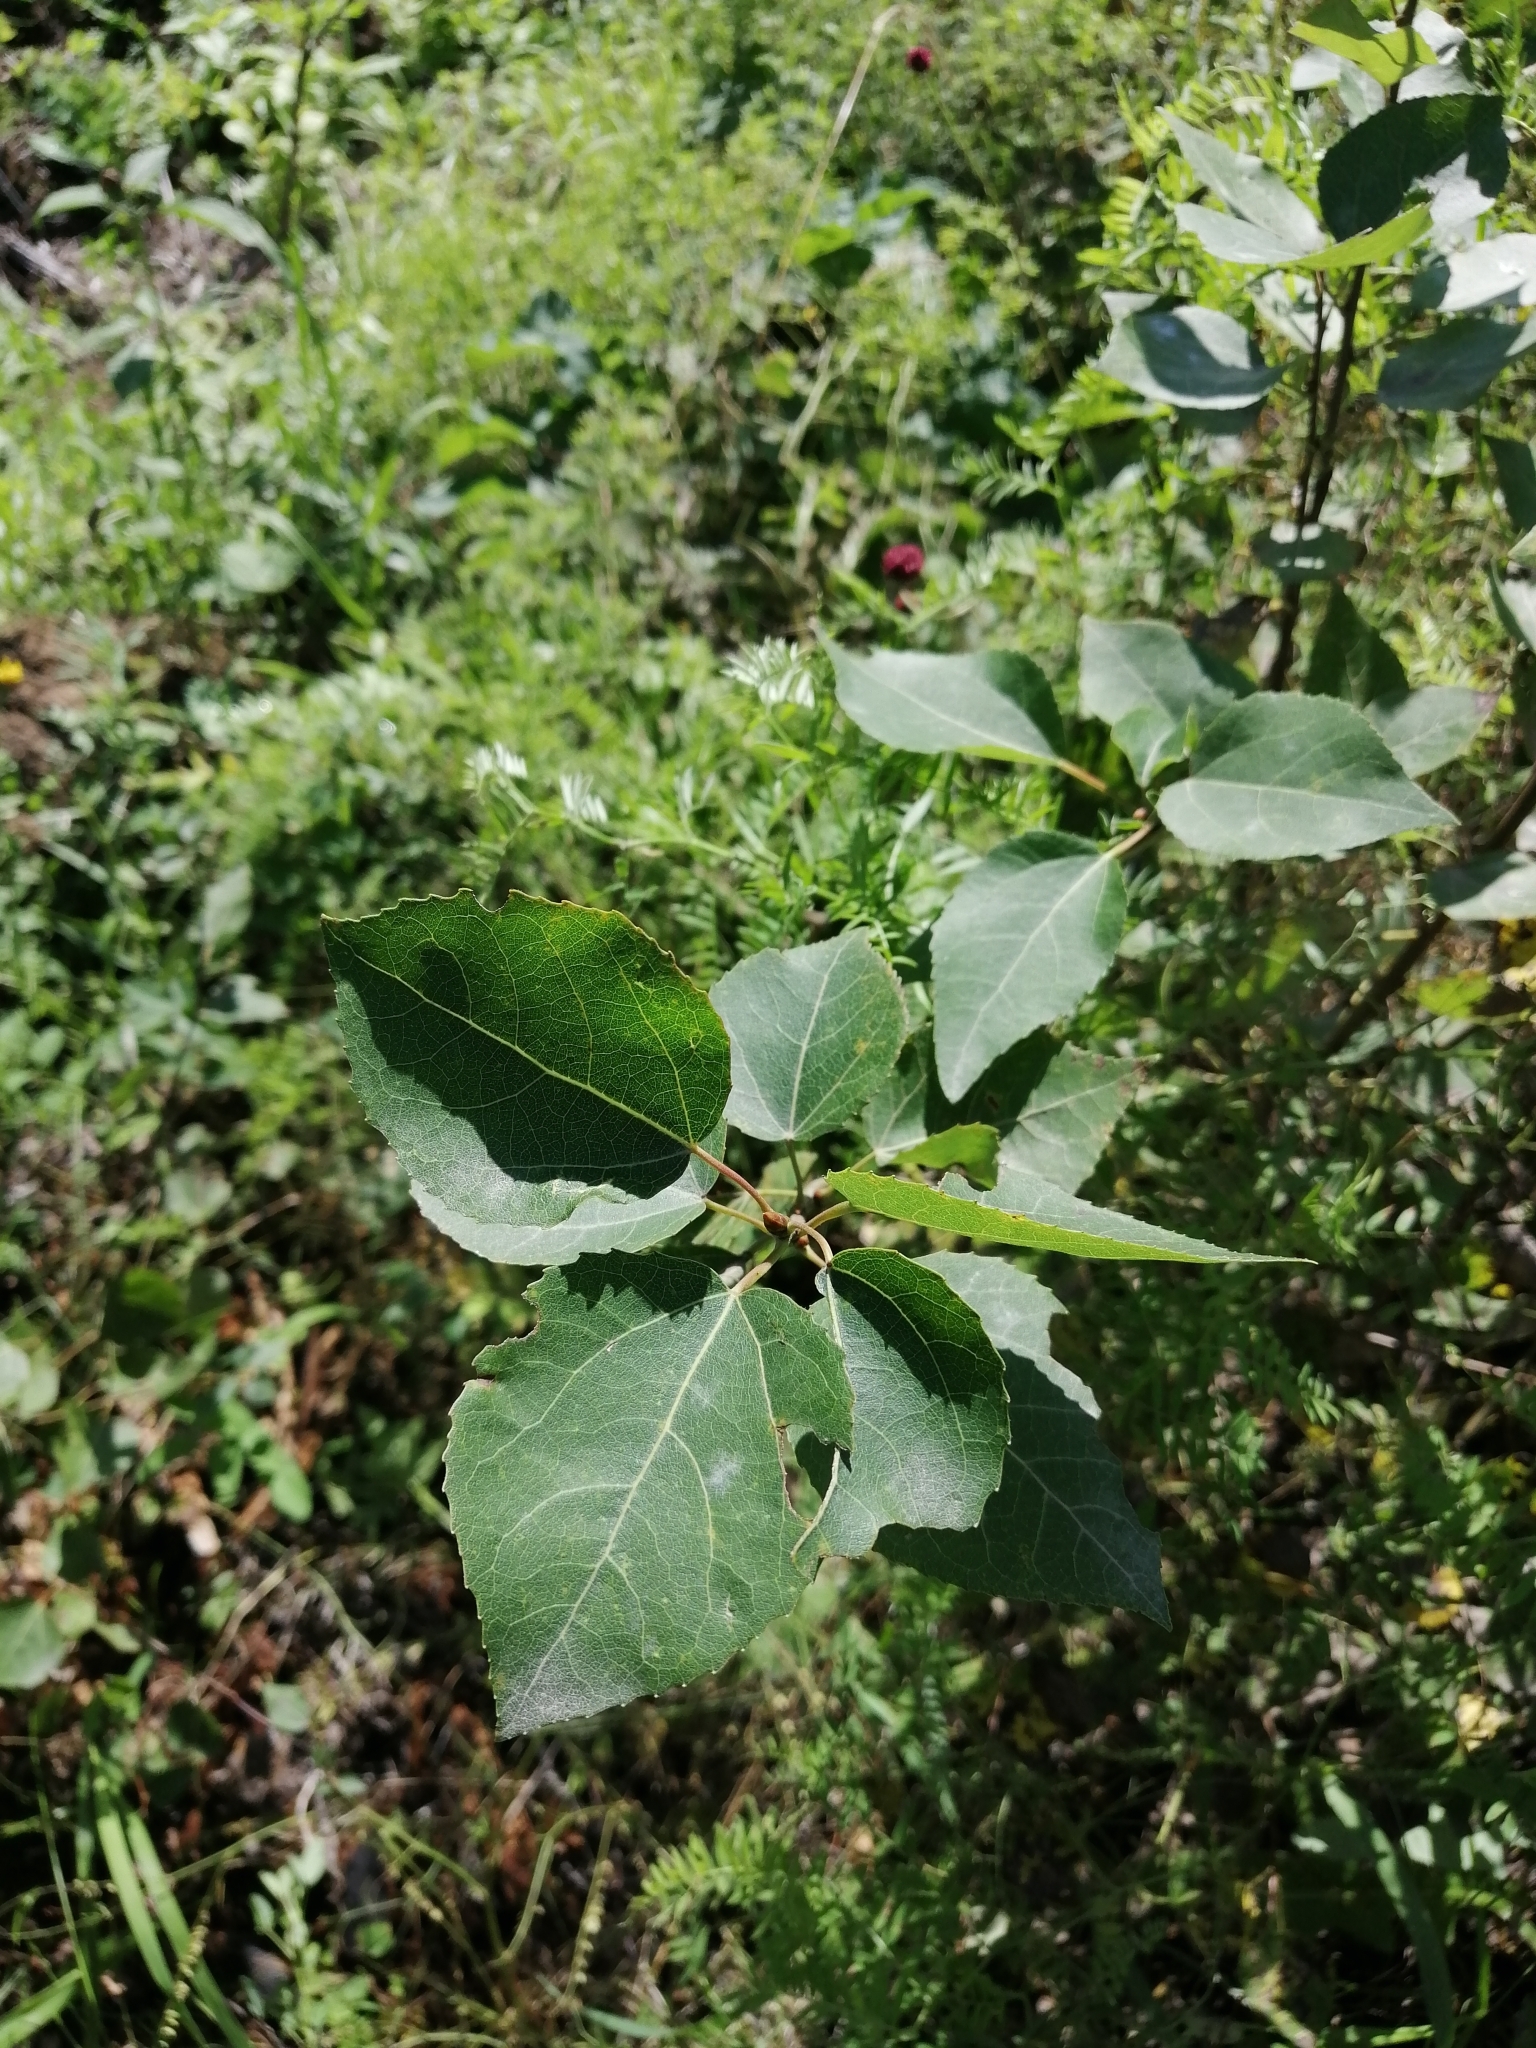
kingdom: Plantae
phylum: Tracheophyta
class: Magnoliopsida
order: Malpighiales
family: Salicaceae
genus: Populus
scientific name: Populus tremula
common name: European aspen
